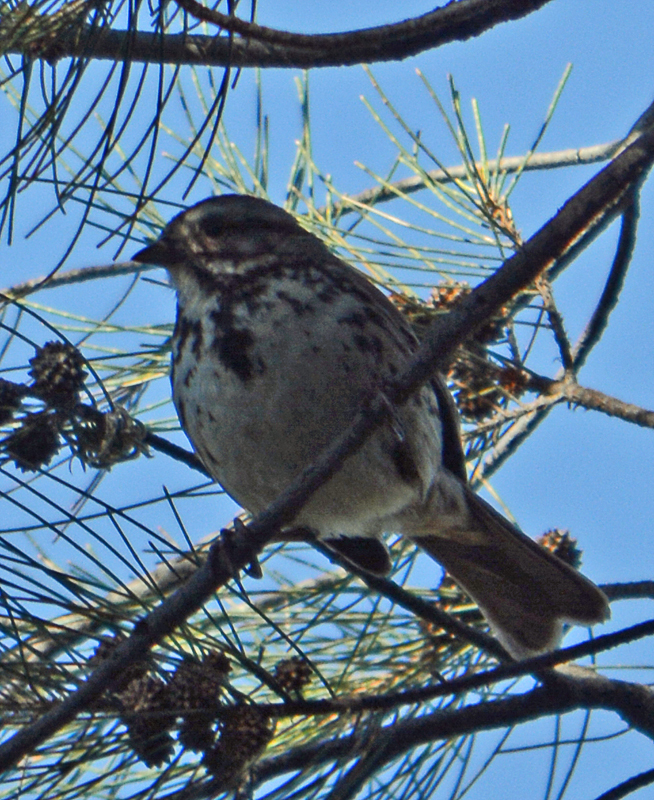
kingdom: Animalia
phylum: Chordata
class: Aves
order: Passeriformes
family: Passerellidae
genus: Melospiza
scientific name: Melospiza melodia
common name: Song sparrow
